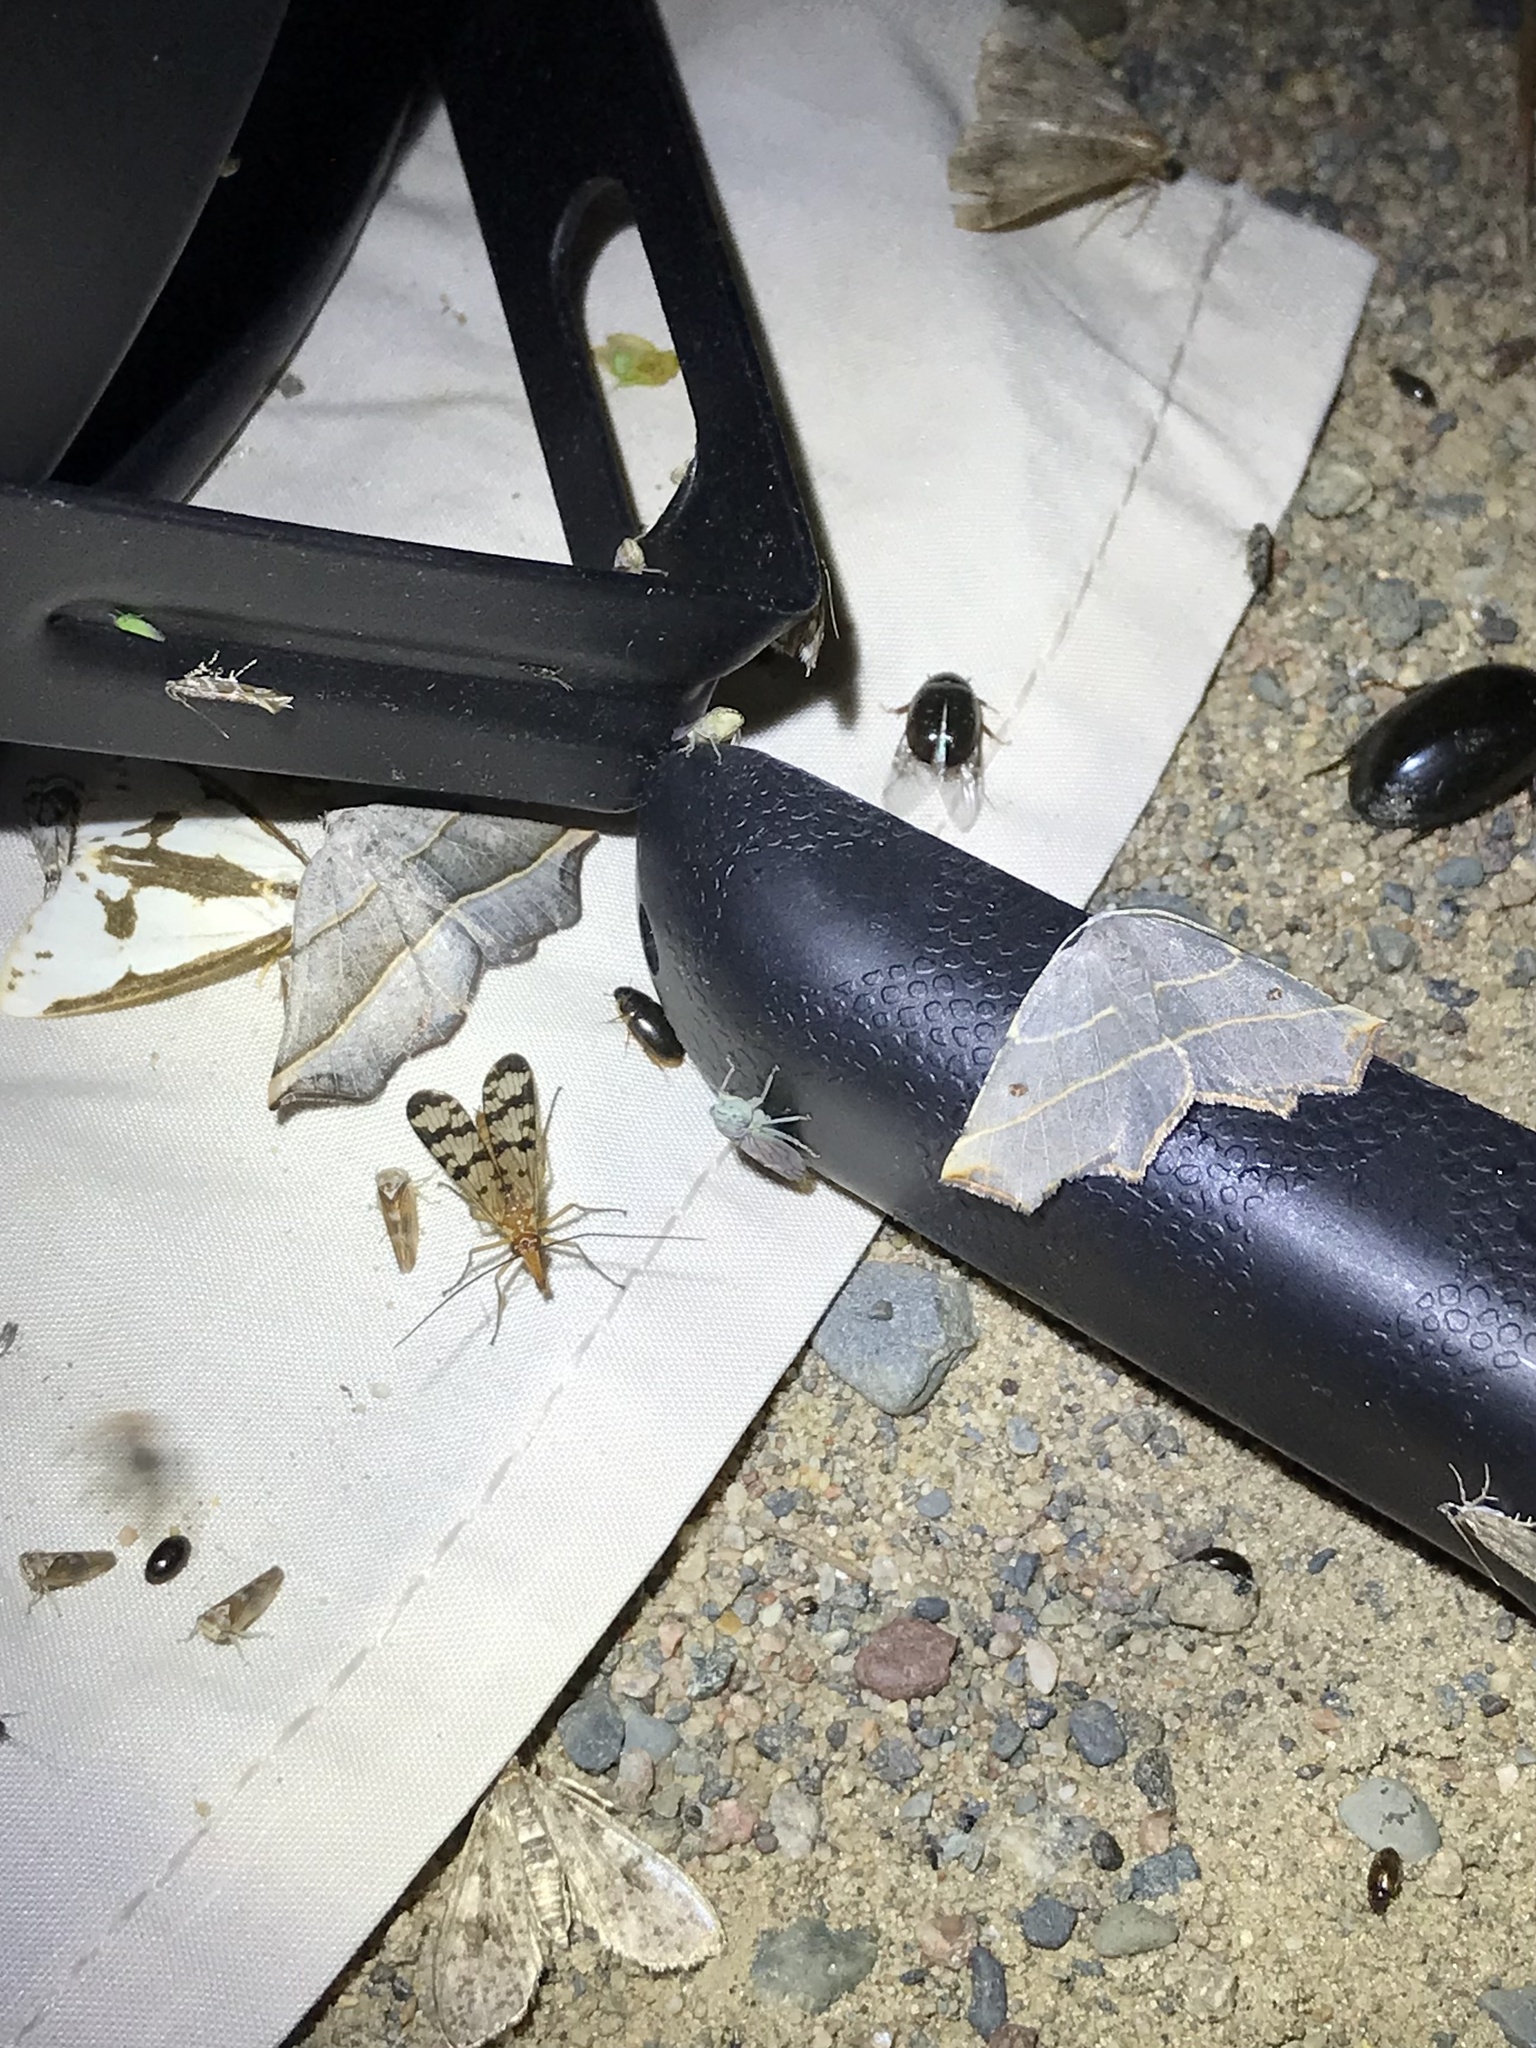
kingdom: Animalia
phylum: Arthropoda
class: Insecta
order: Lepidoptera
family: Geometridae
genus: Metanema
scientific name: Metanema inatomaria
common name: Pale metanema
